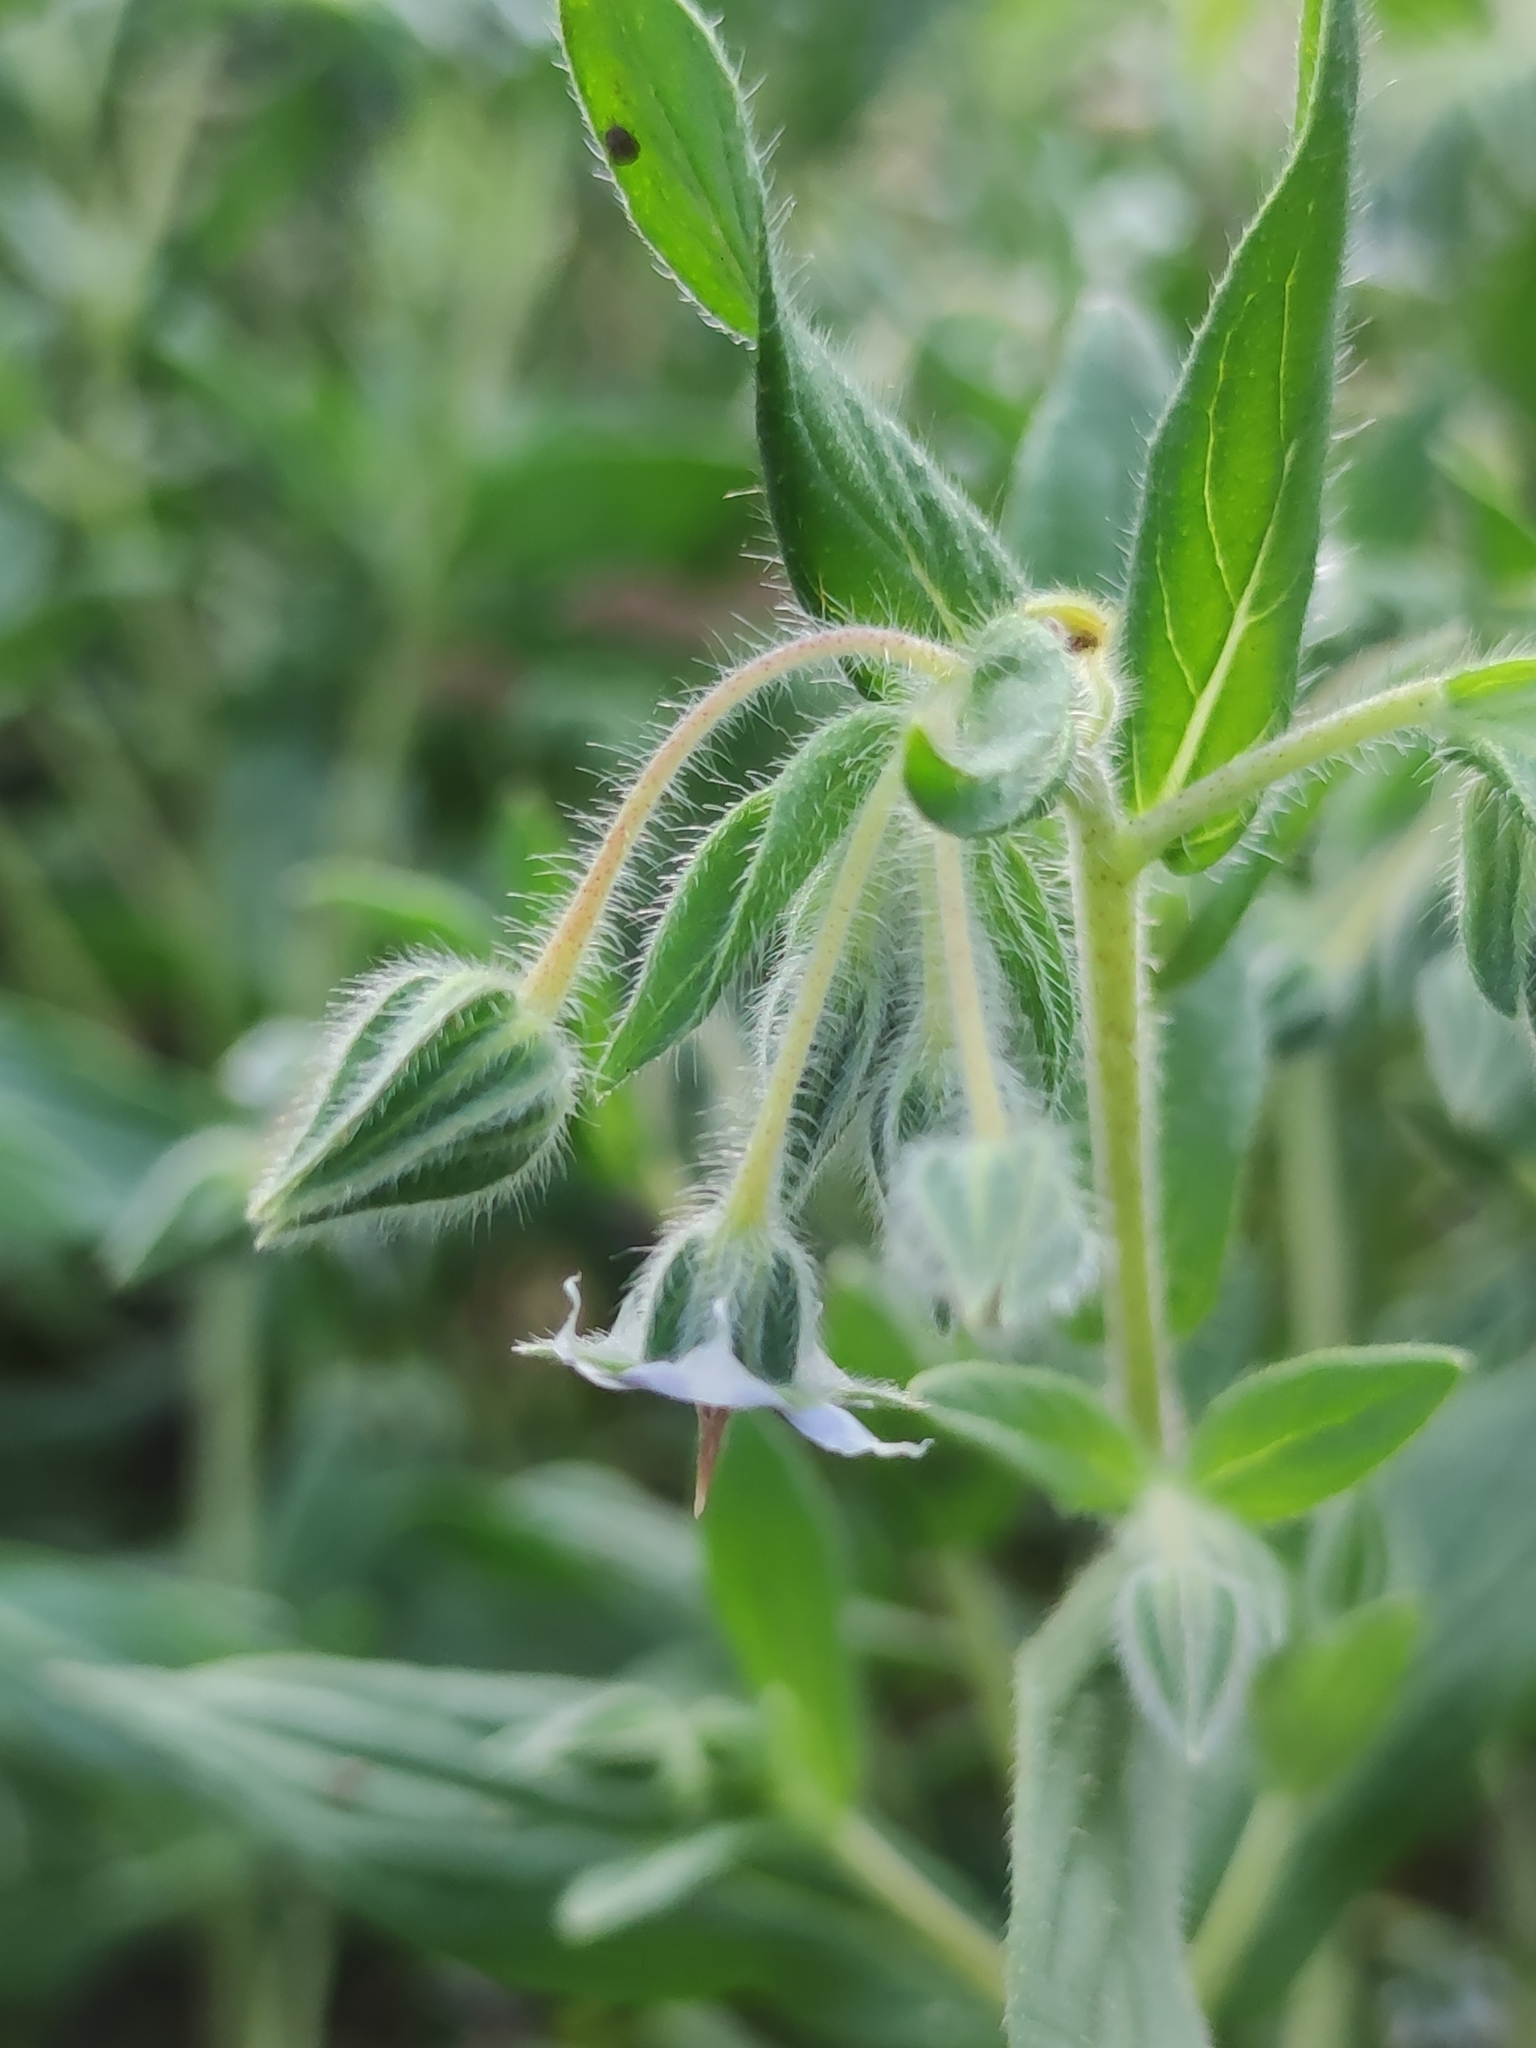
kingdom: Plantae
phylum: Tracheophyta
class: Magnoliopsida
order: Boraginales
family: Boraginaceae
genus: Trichodesma
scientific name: Trichodesma zeylanicum
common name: Camelbush
